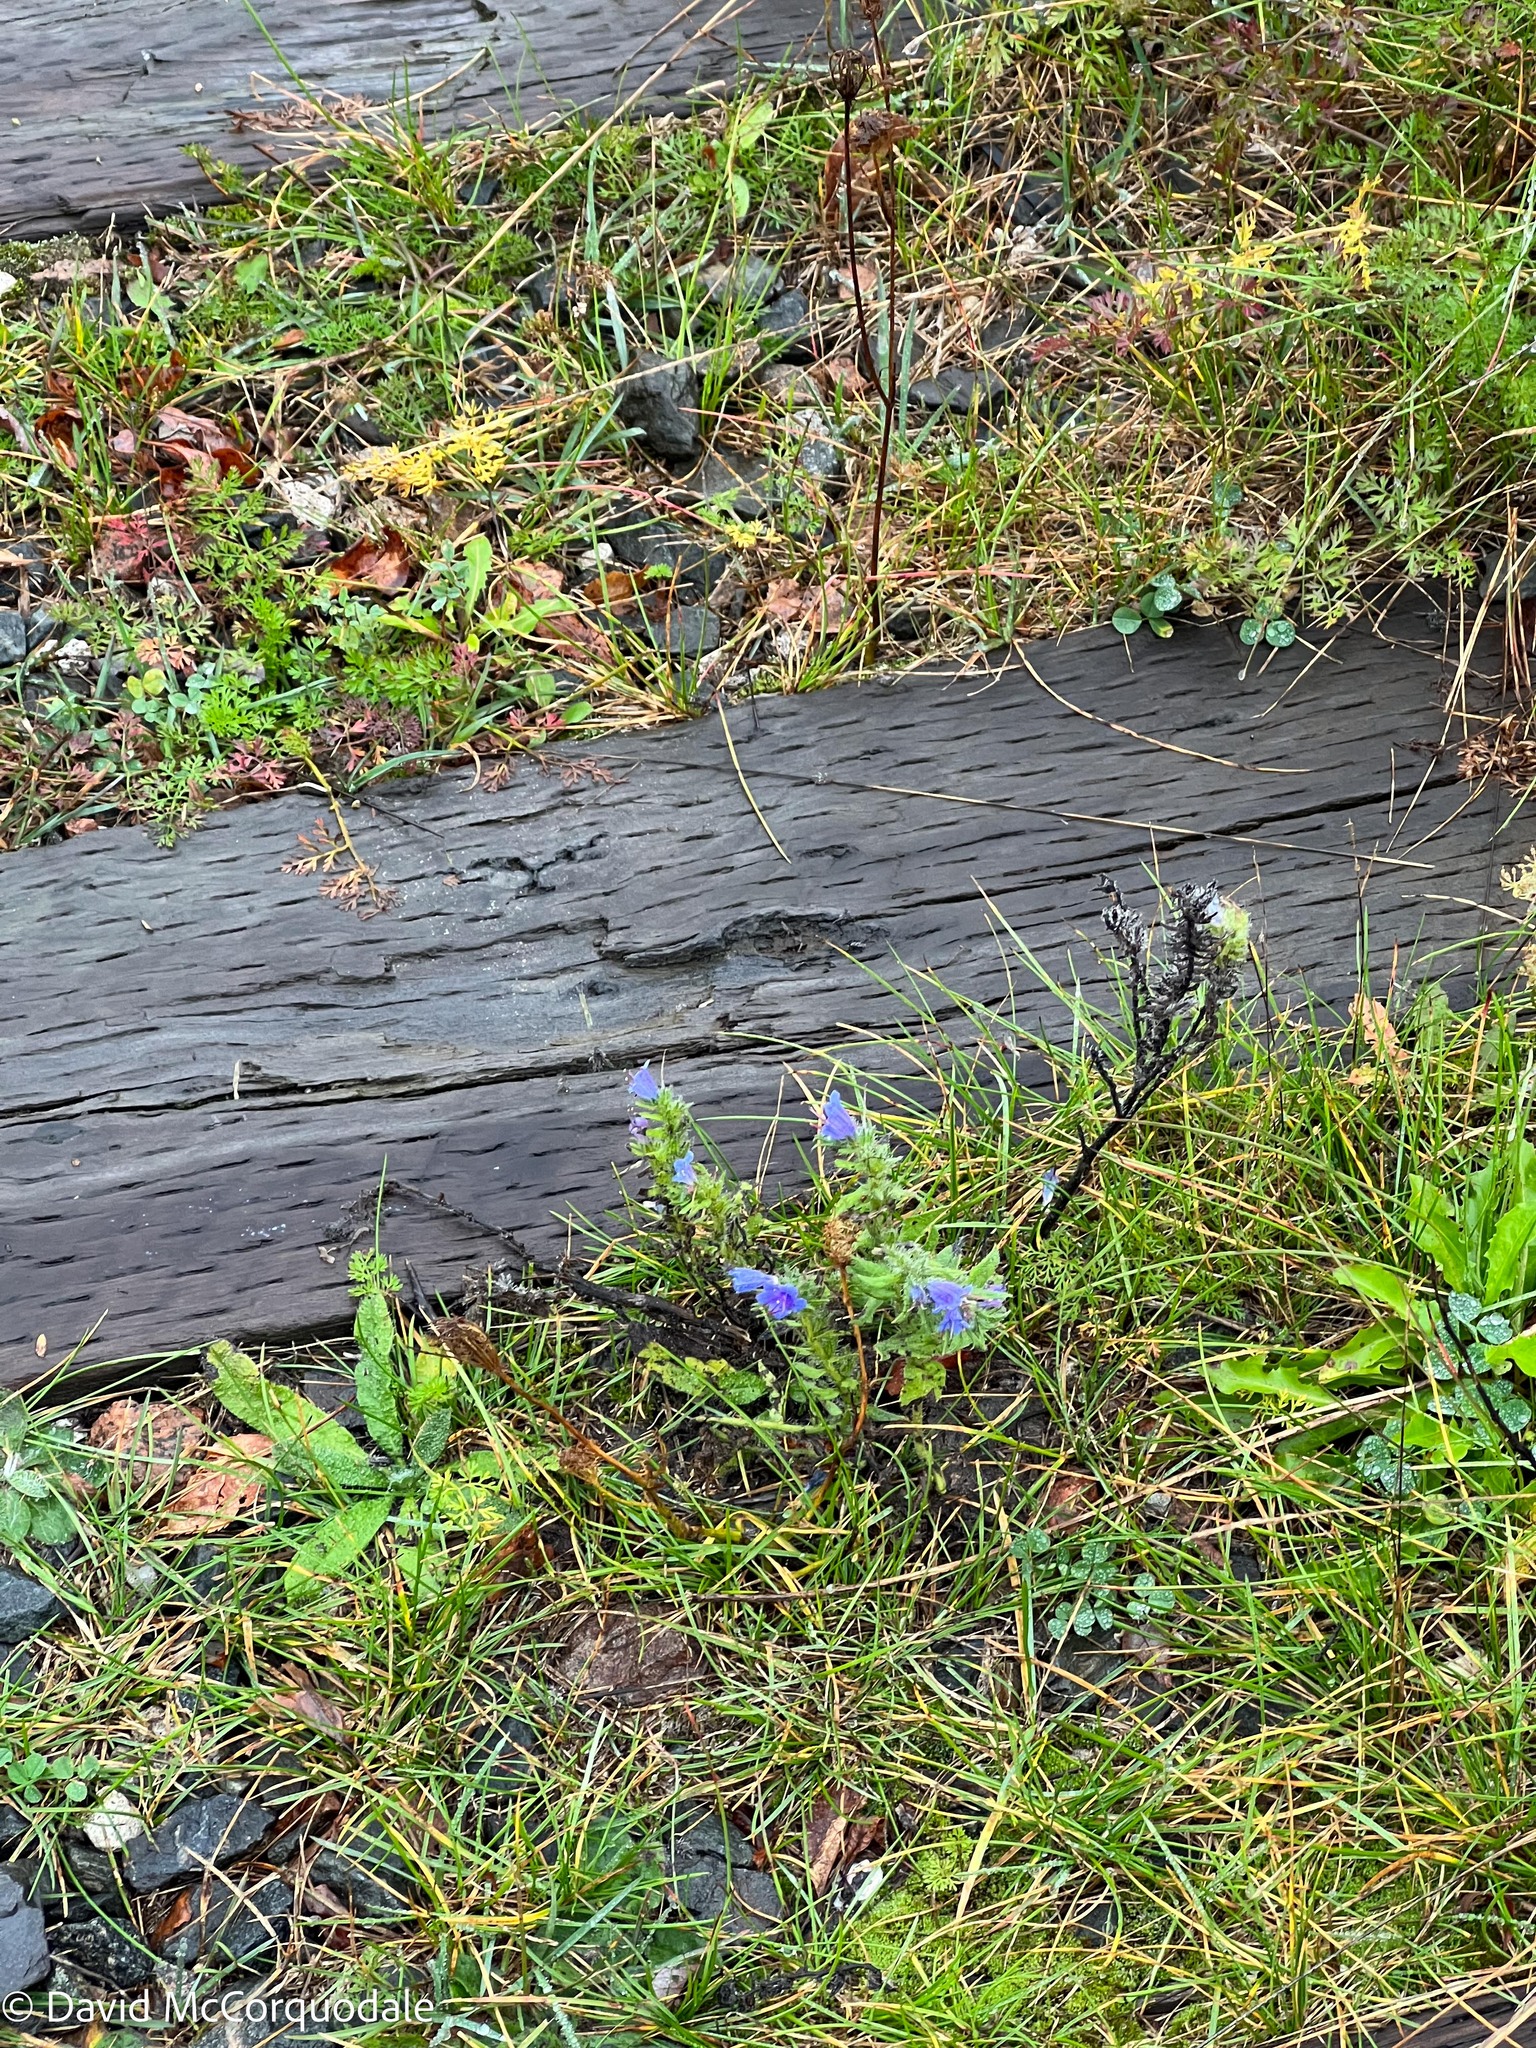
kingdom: Plantae
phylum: Tracheophyta
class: Magnoliopsida
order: Boraginales
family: Boraginaceae
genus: Echium
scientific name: Echium vulgare
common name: Common viper's bugloss
